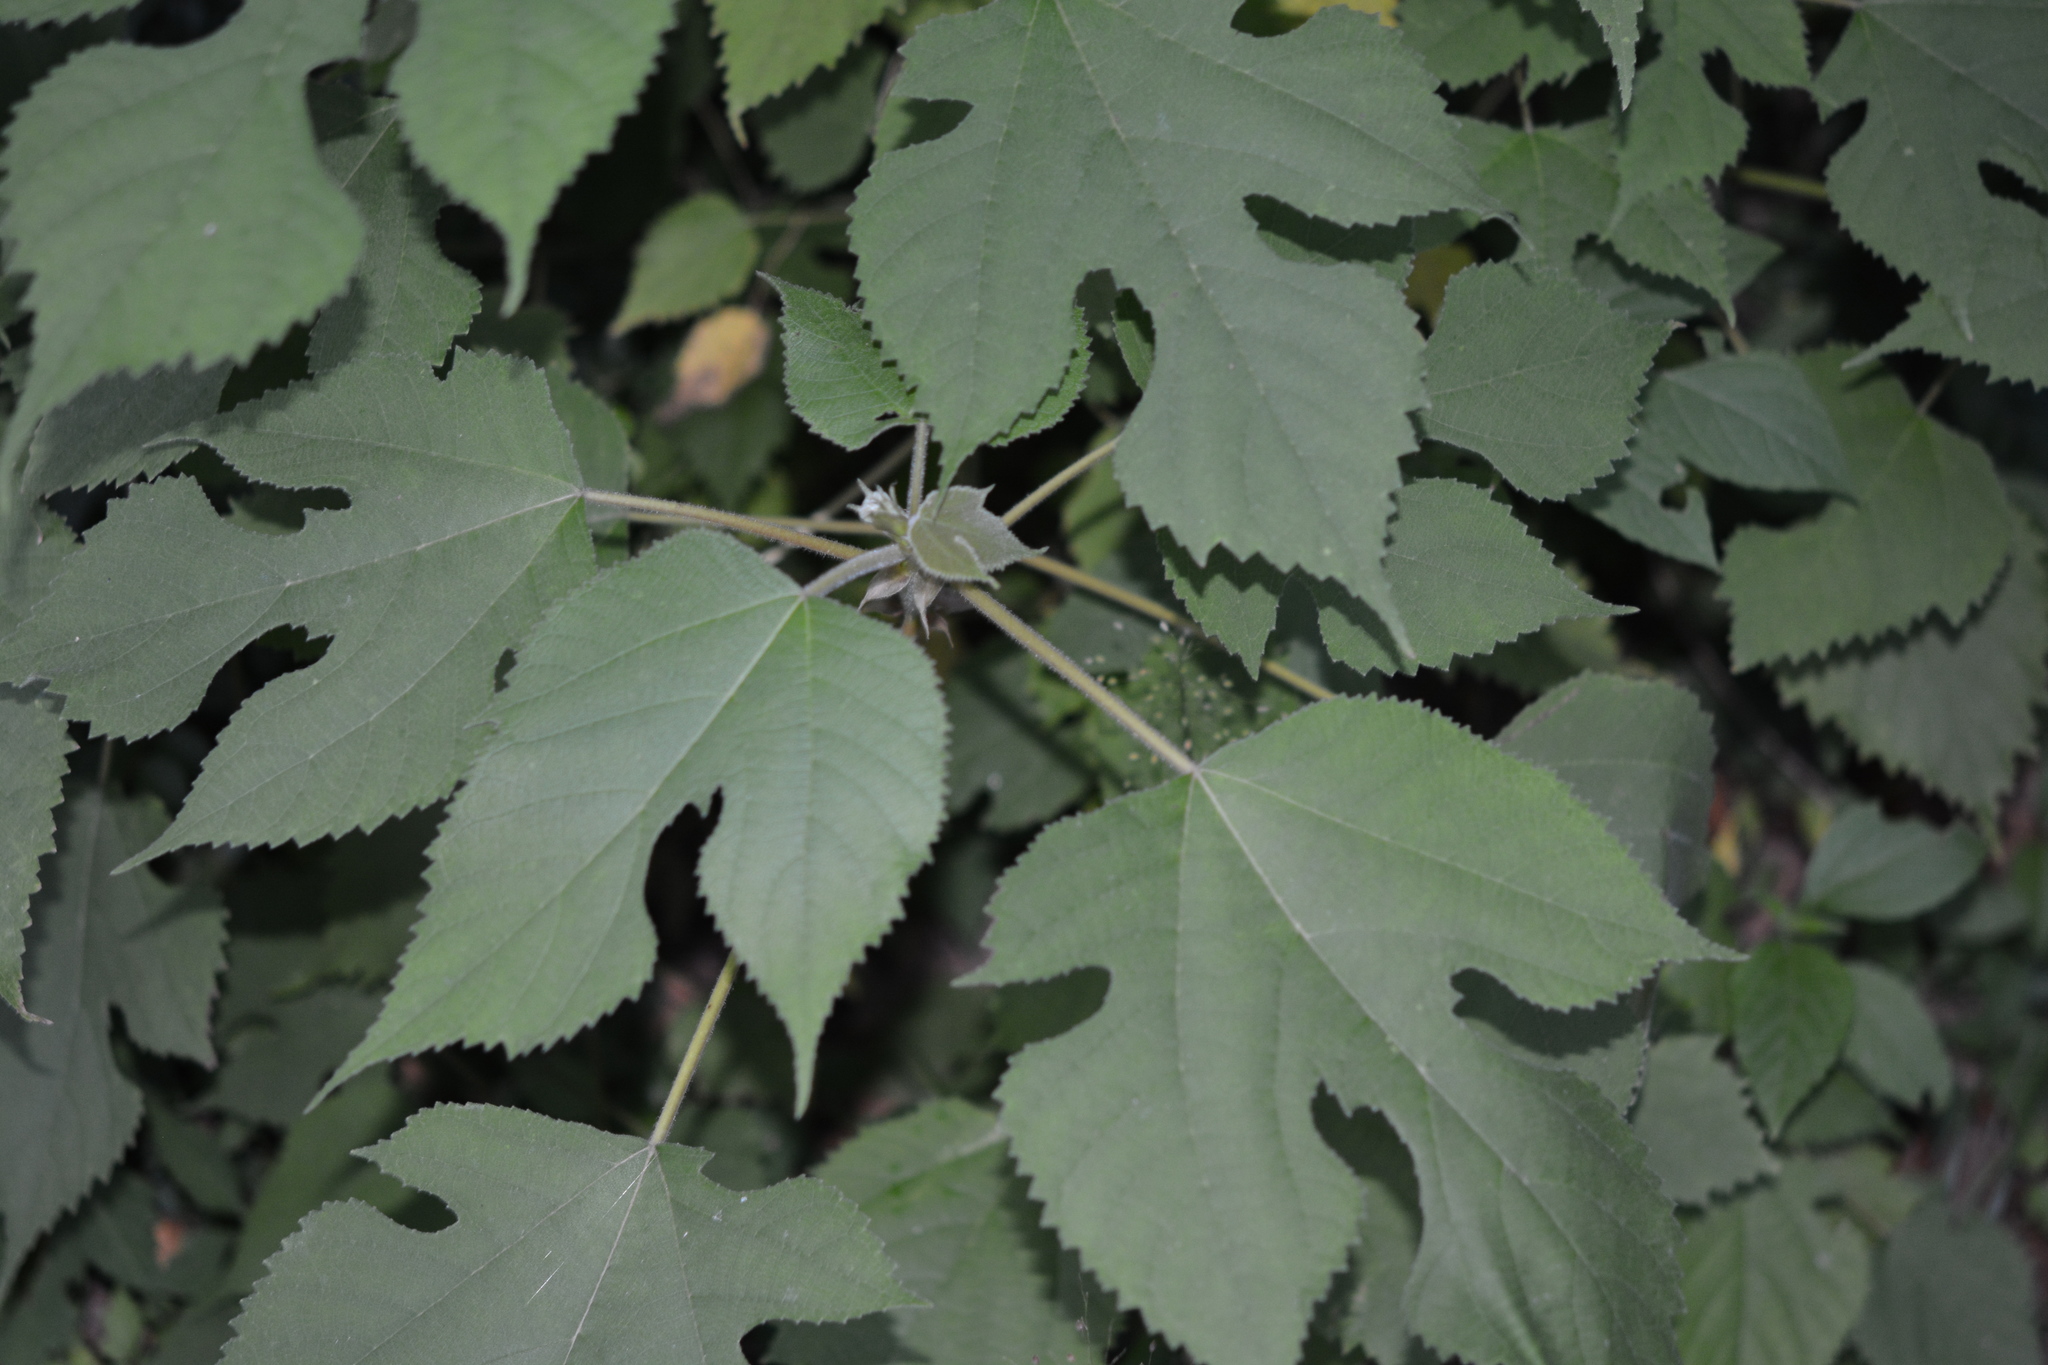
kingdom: Plantae
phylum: Tracheophyta
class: Magnoliopsida
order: Rosales
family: Moraceae
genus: Broussonetia
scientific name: Broussonetia papyrifera
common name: Paper mulberry
